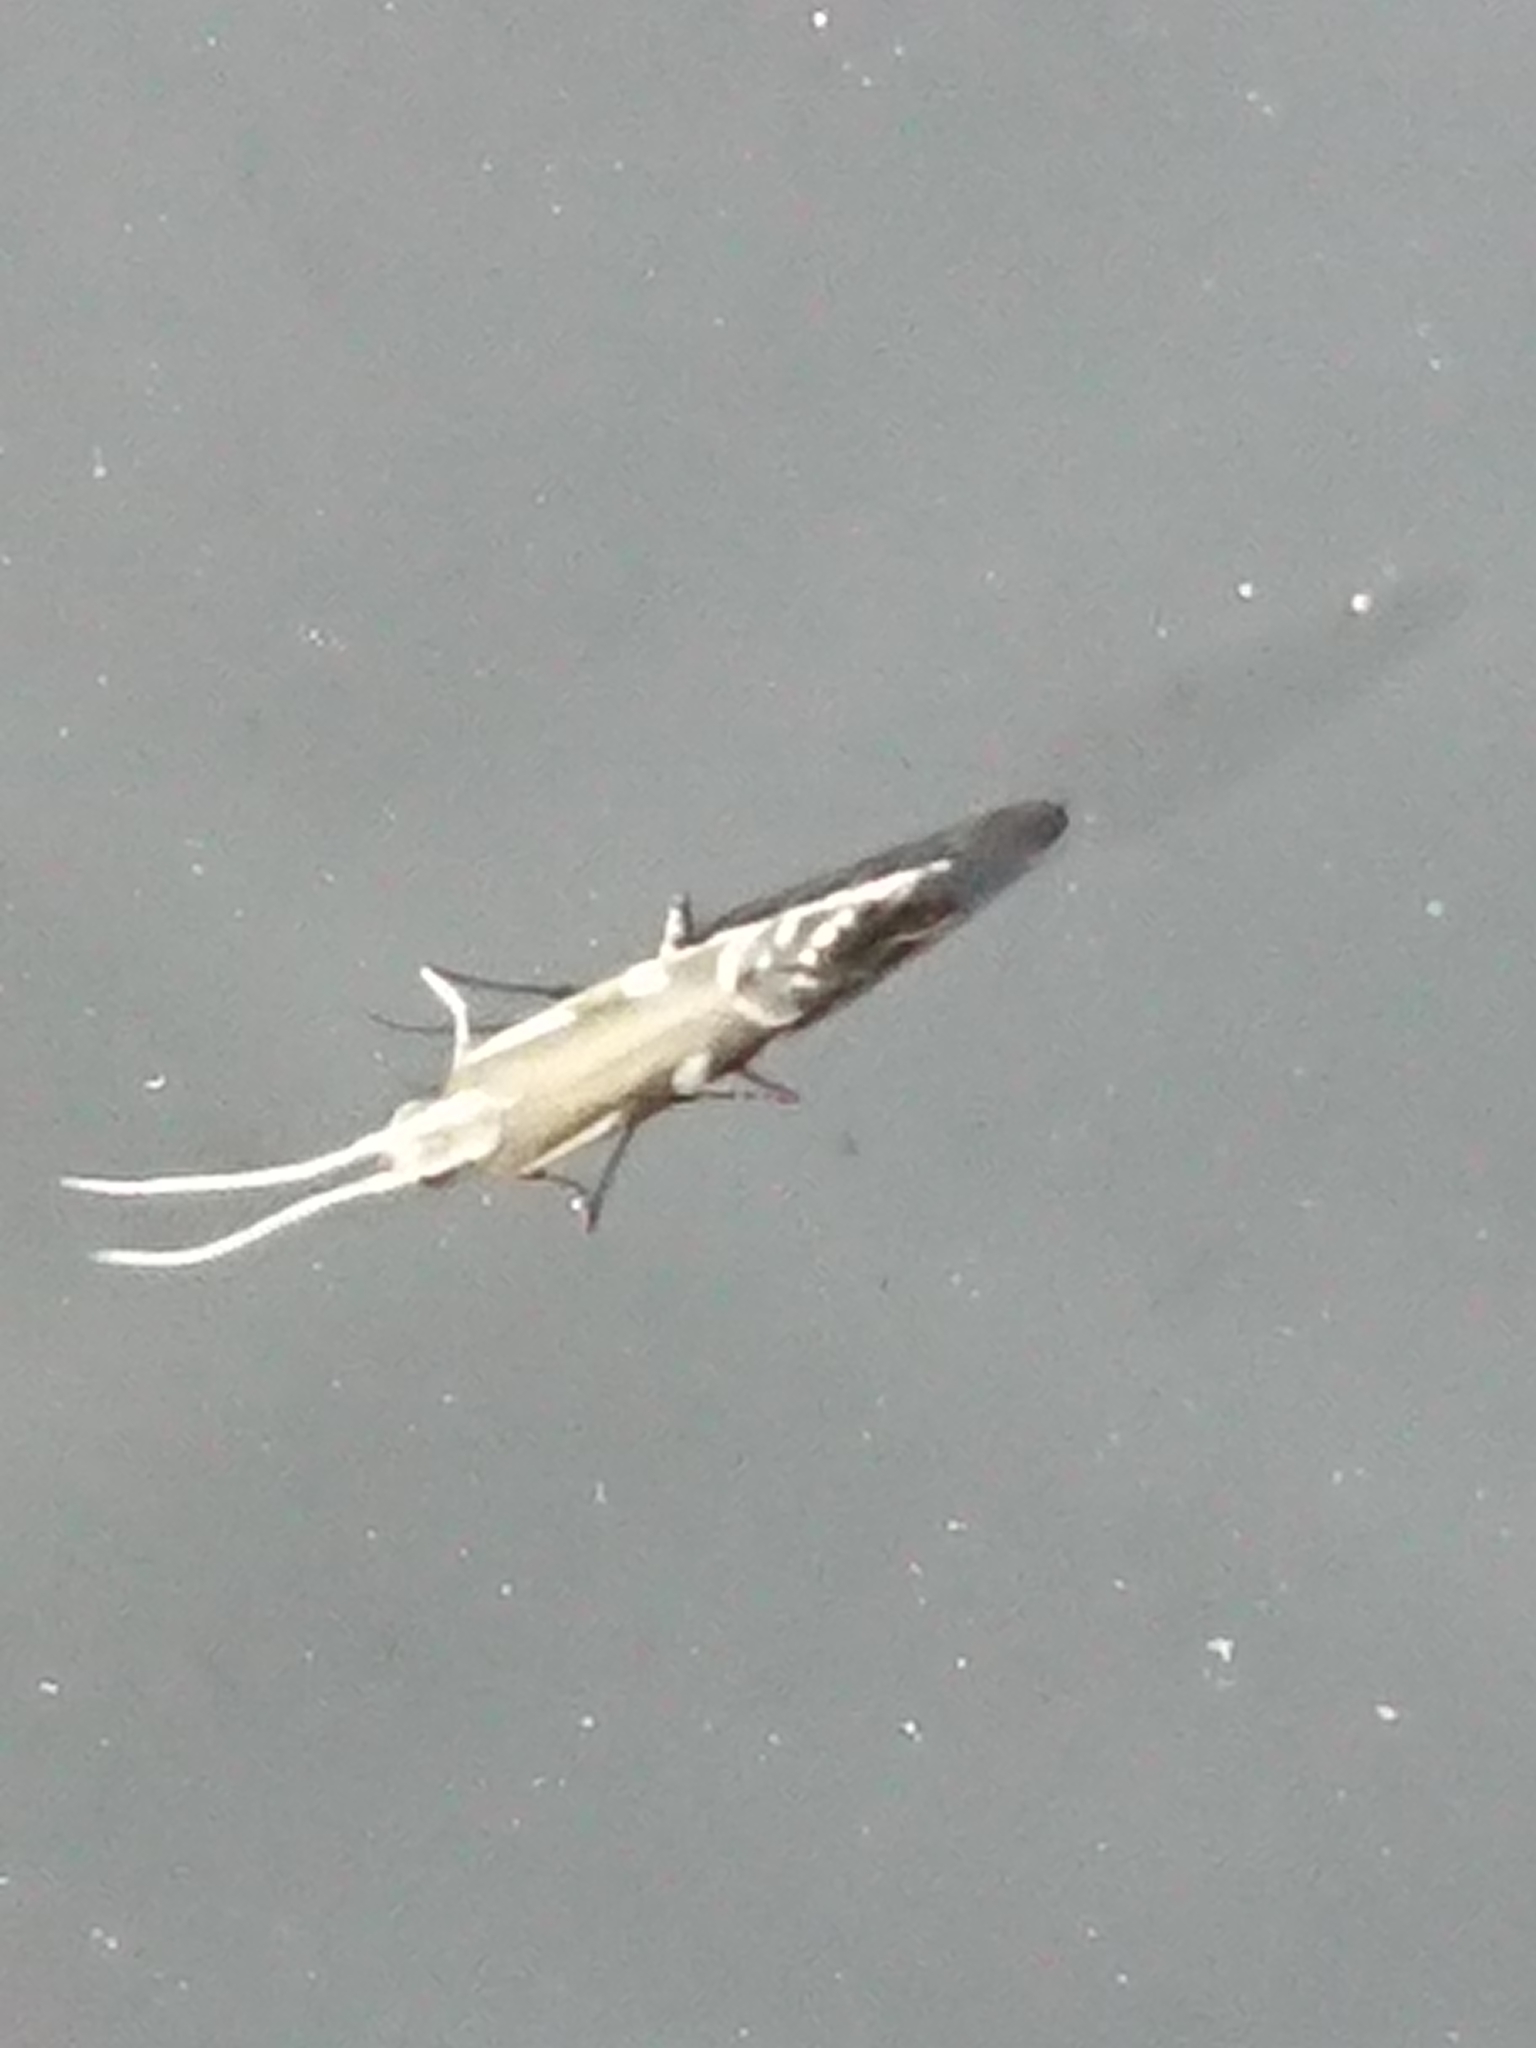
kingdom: Animalia
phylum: Arthropoda
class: Insecta
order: Lepidoptera
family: Glyphipterigidae
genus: Chrysorthenches
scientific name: Chrysorthenches glypharcha
